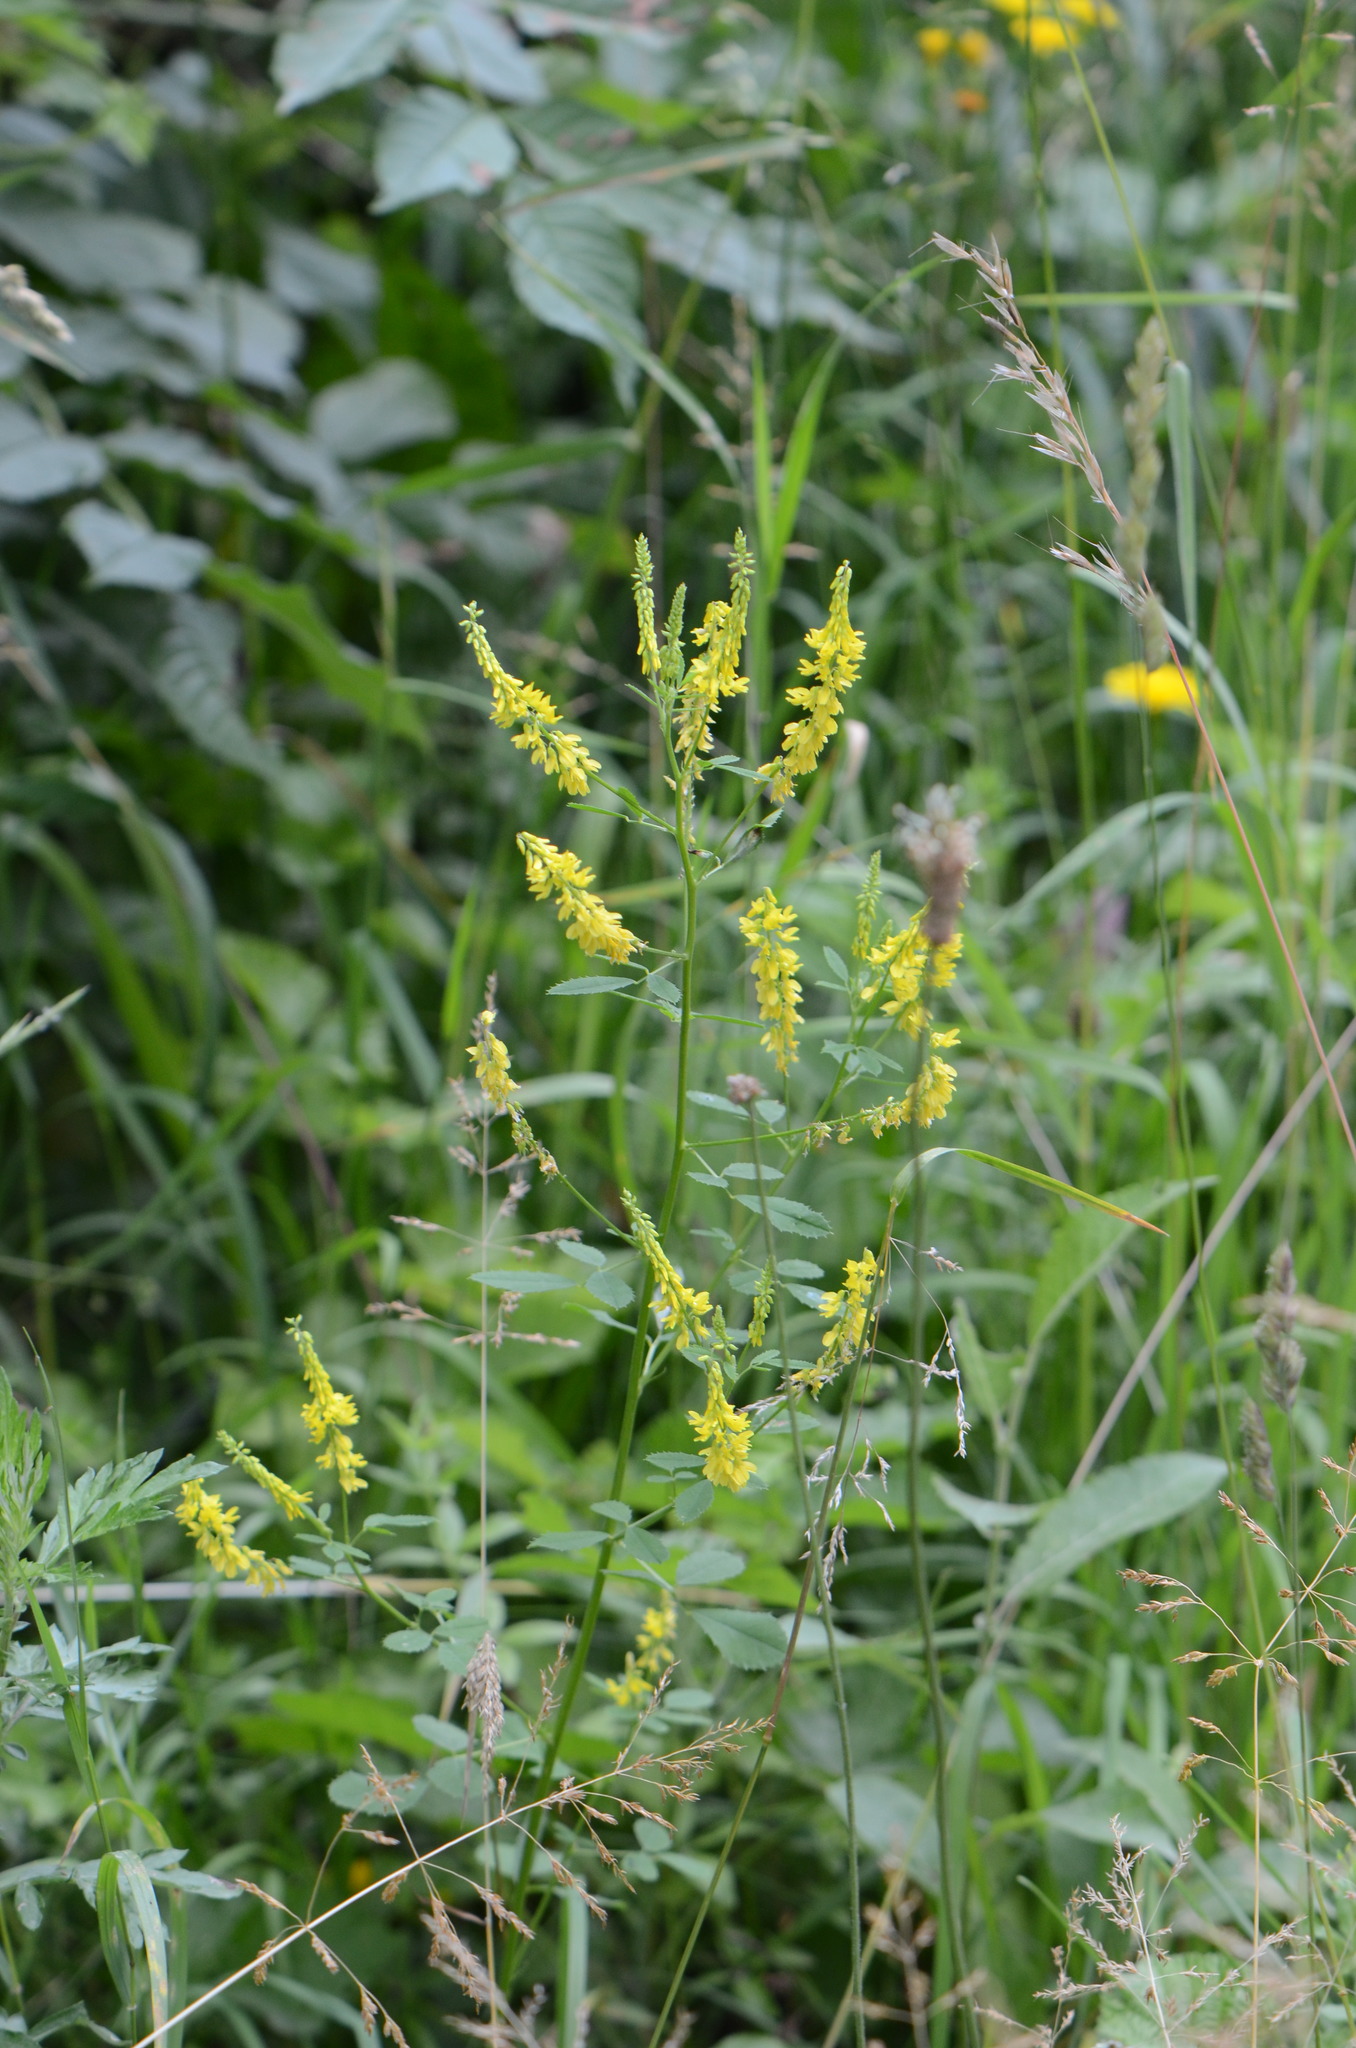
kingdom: Plantae
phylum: Tracheophyta
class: Magnoliopsida
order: Fabales
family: Fabaceae
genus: Melilotus
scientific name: Melilotus officinalis
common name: Sweetclover
